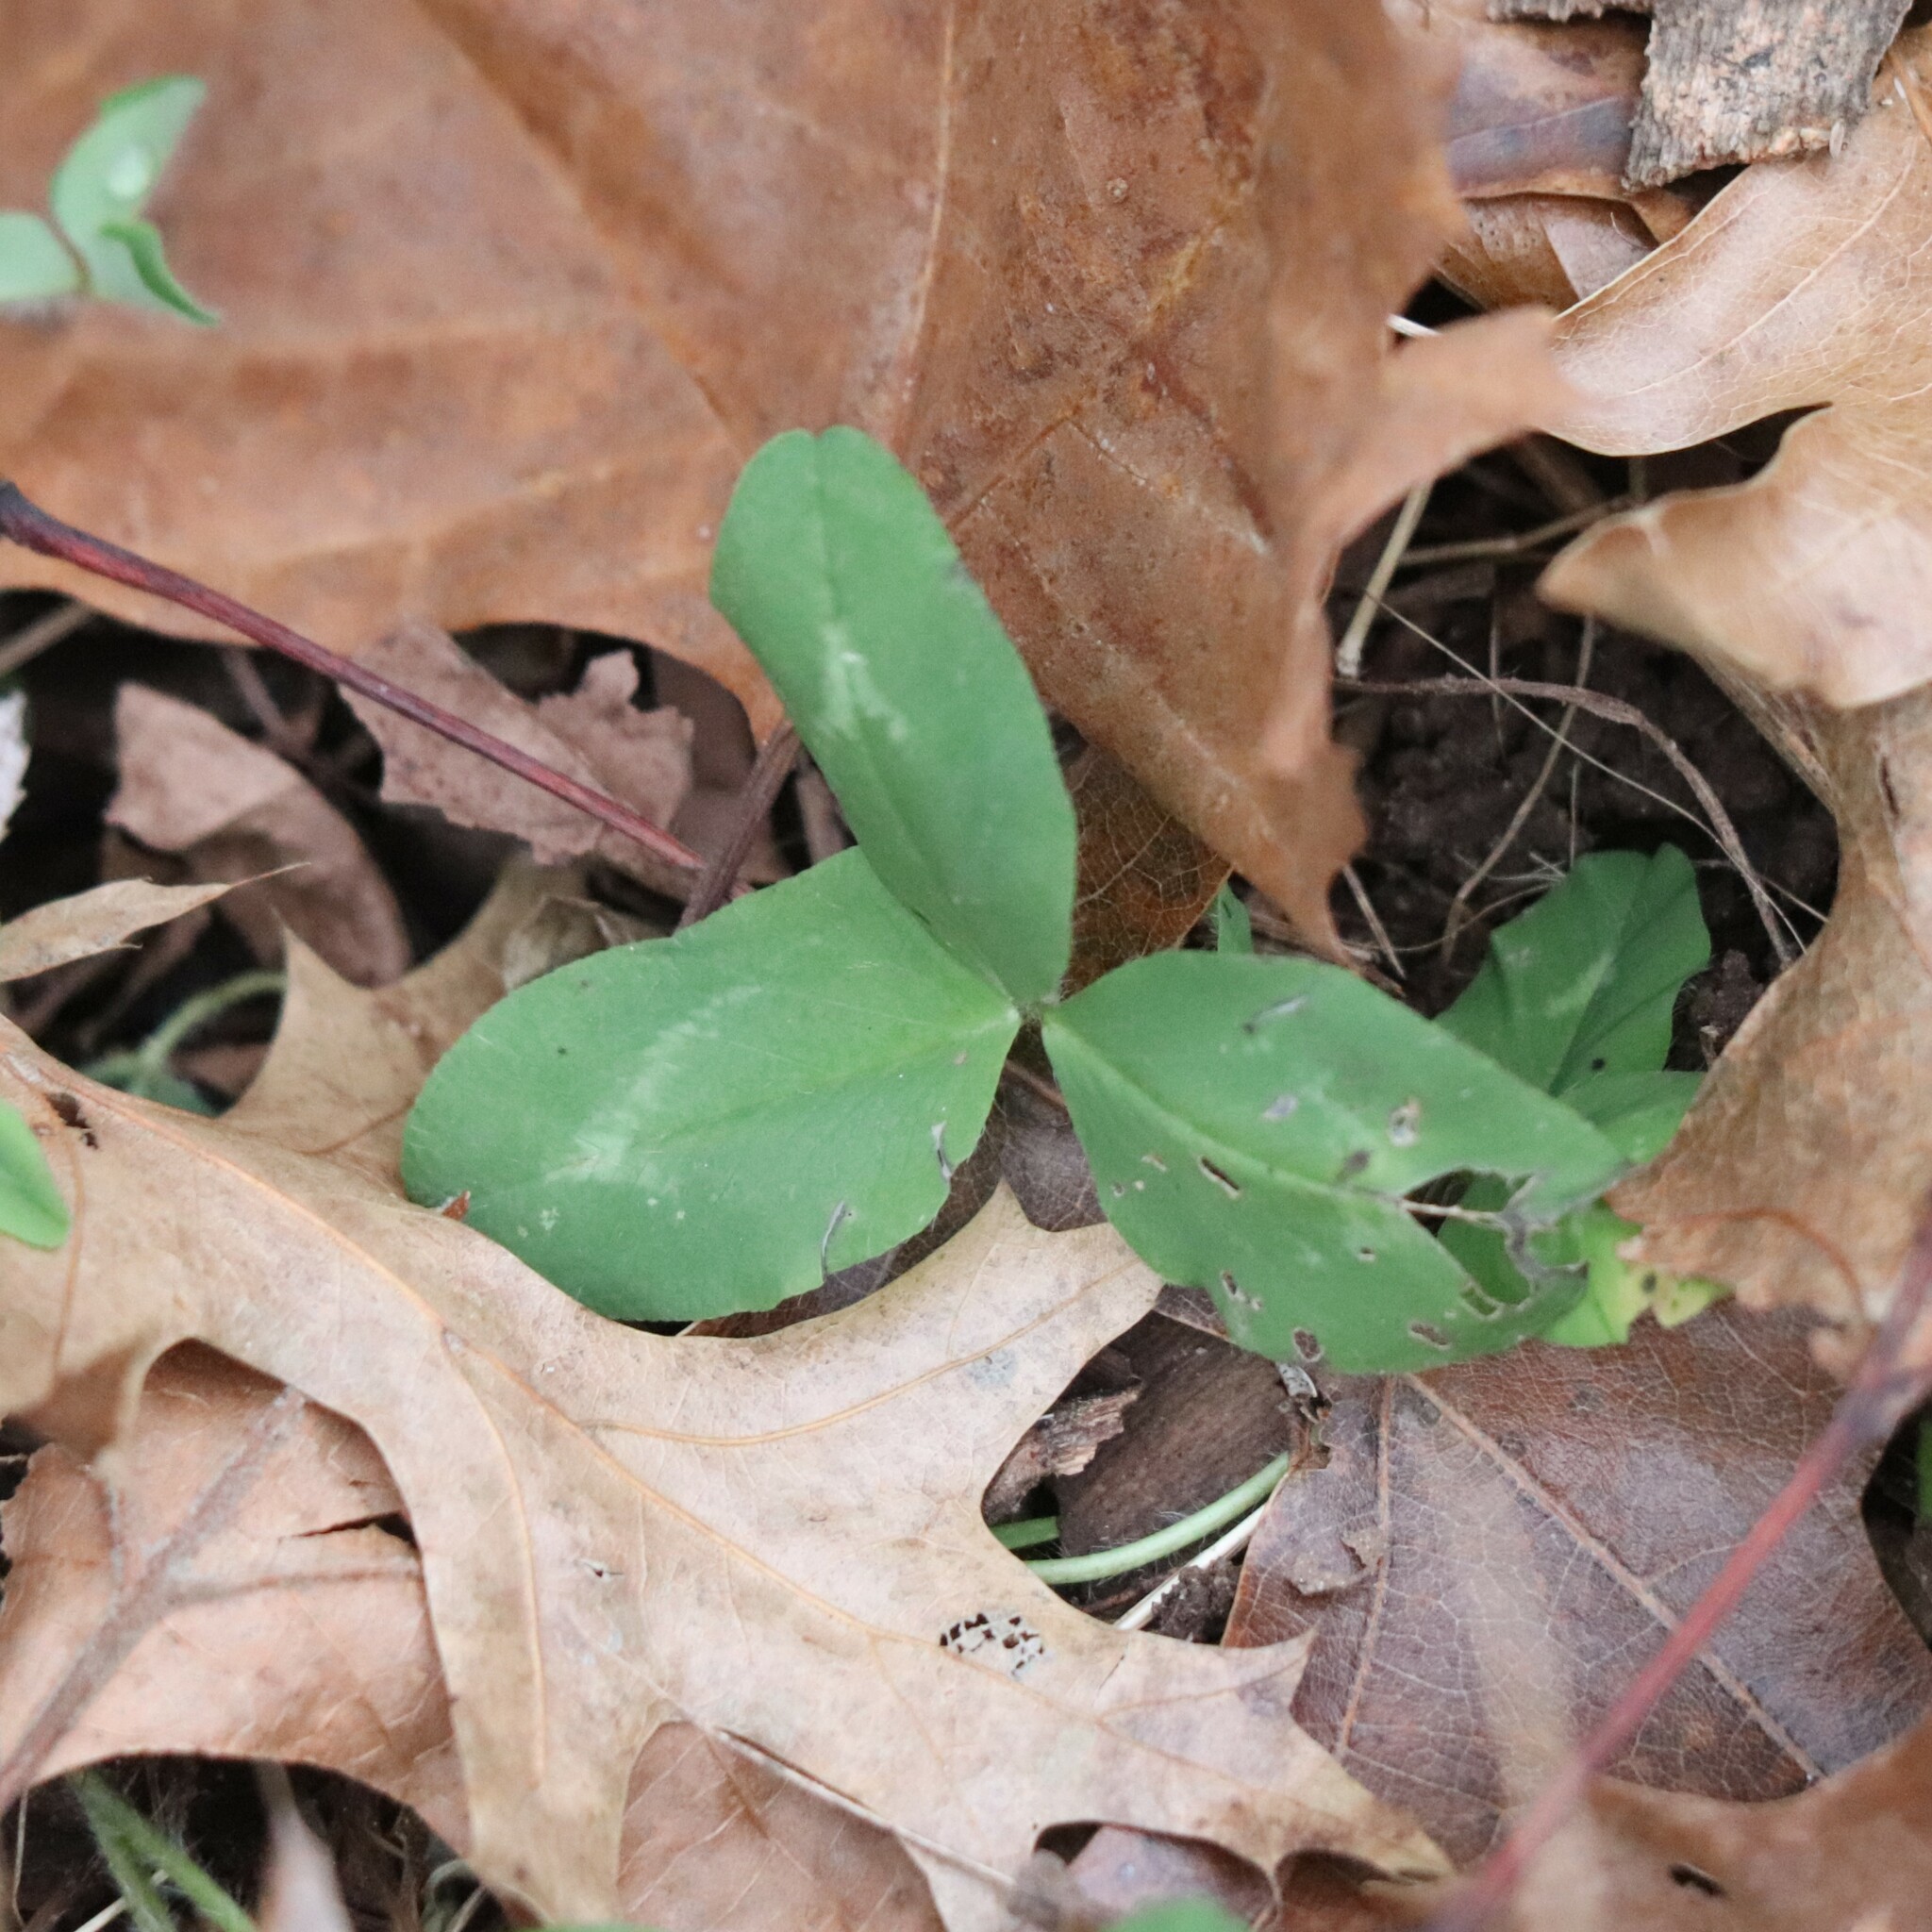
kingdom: Plantae
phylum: Tracheophyta
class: Magnoliopsida
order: Fabales
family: Fabaceae
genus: Trifolium
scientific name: Trifolium pratense
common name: Red clover
